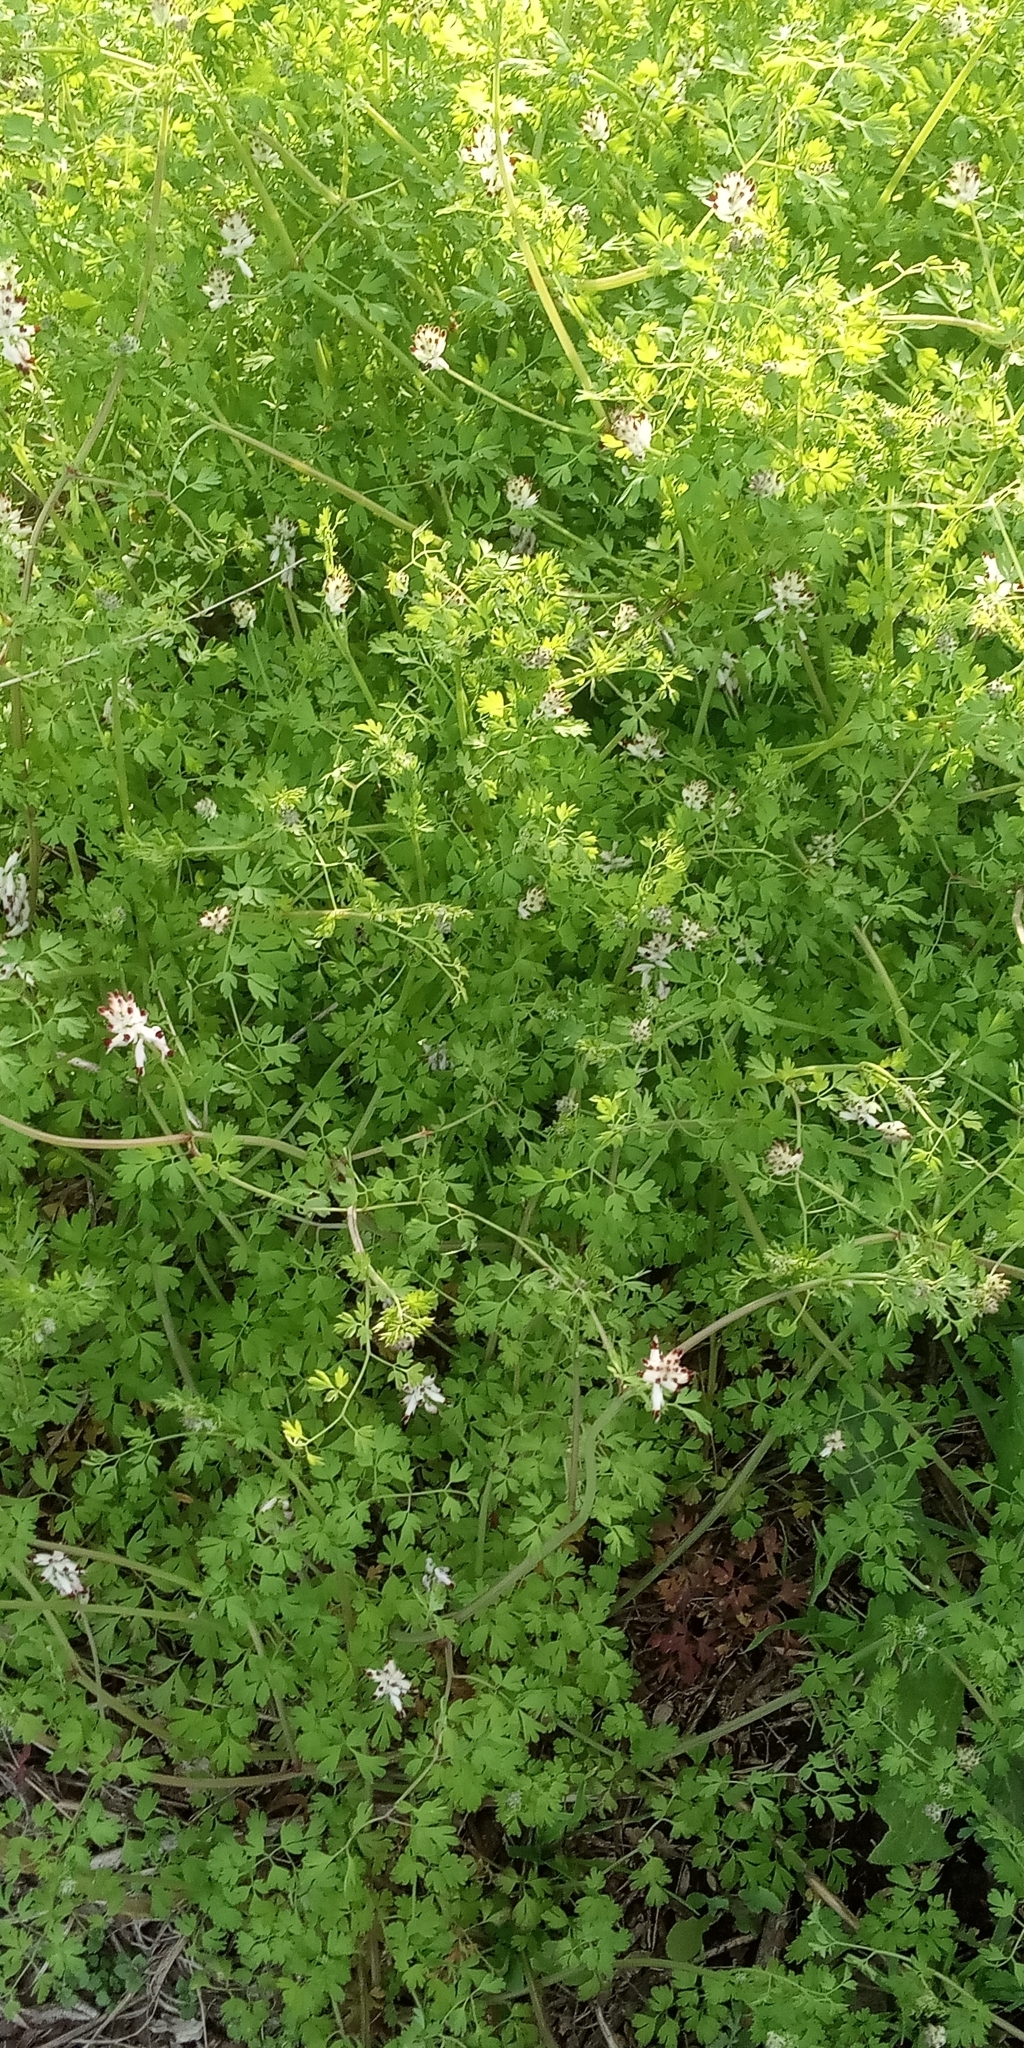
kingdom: Plantae
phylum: Tracheophyta
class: Magnoliopsida
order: Ranunculales
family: Papaveraceae
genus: Fumaria
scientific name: Fumaria capreolata
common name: White ramping-fumitory
